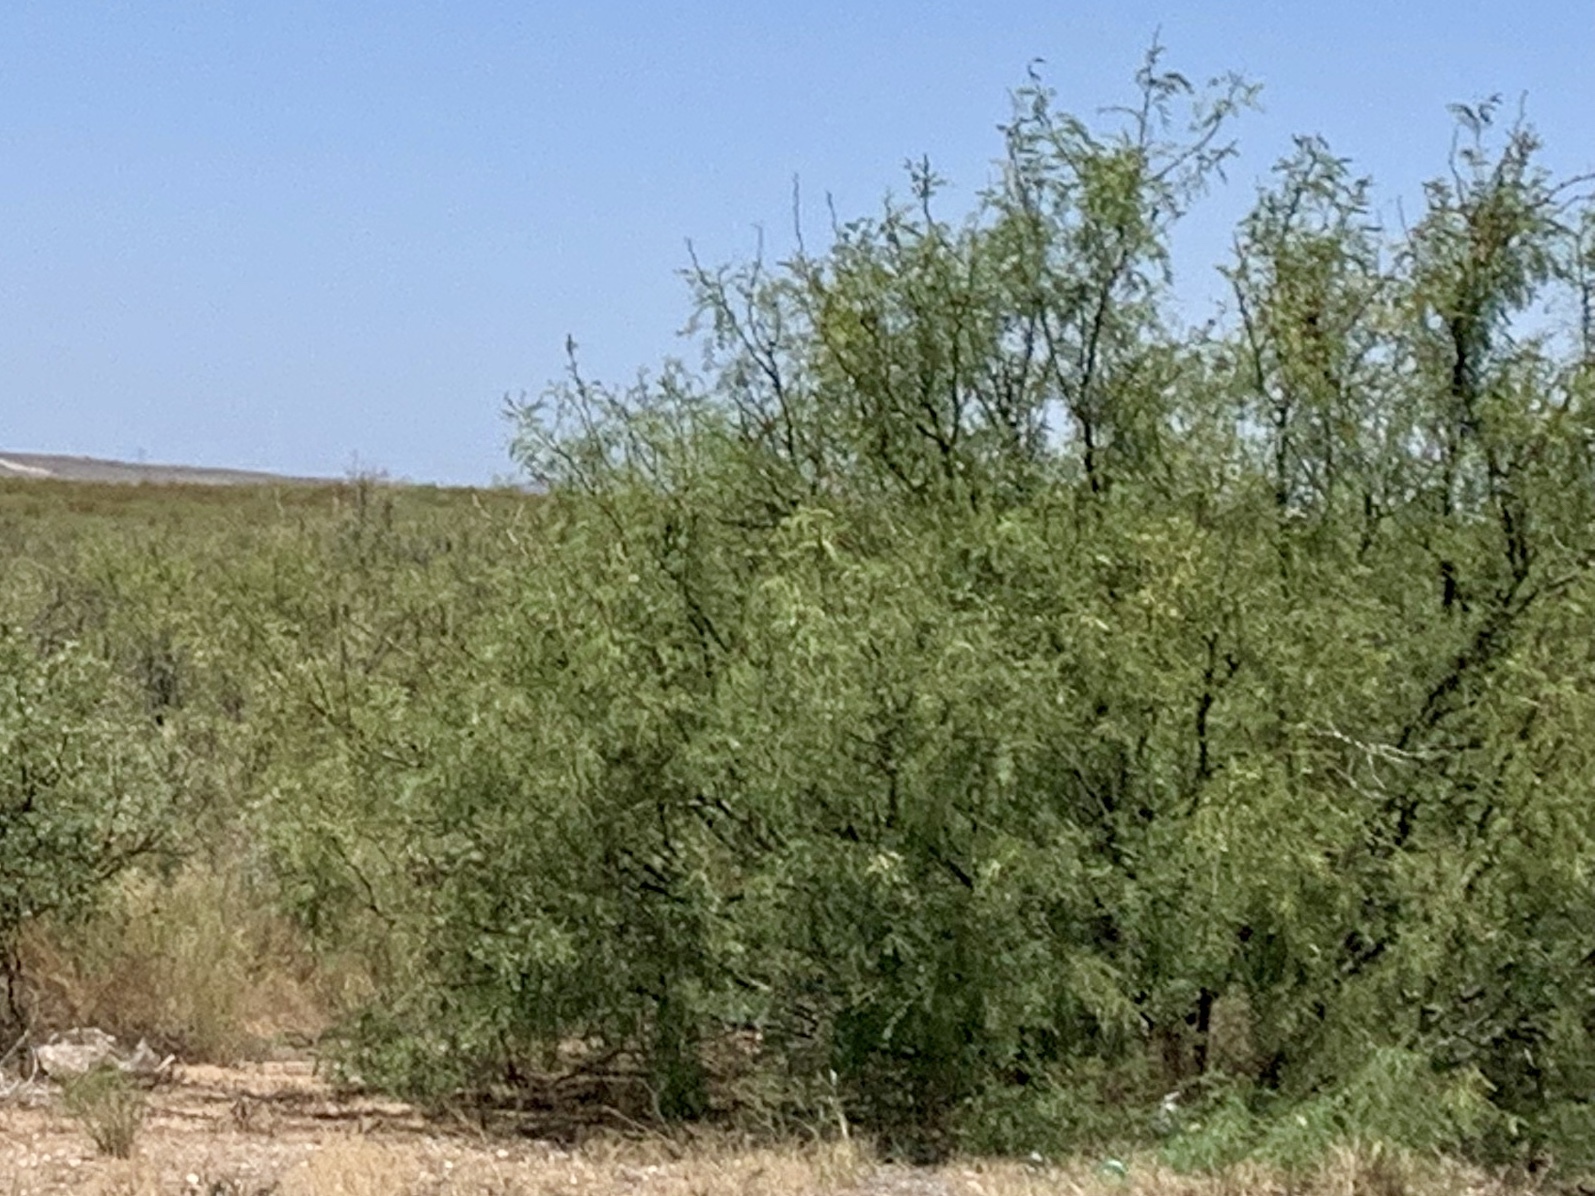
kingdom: Plantae
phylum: Tracheophyta
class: Magnoliopsida
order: Fabales
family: Fabaceae
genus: Prosopis
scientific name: Prosopis glandulosa
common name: Honey mesquite
